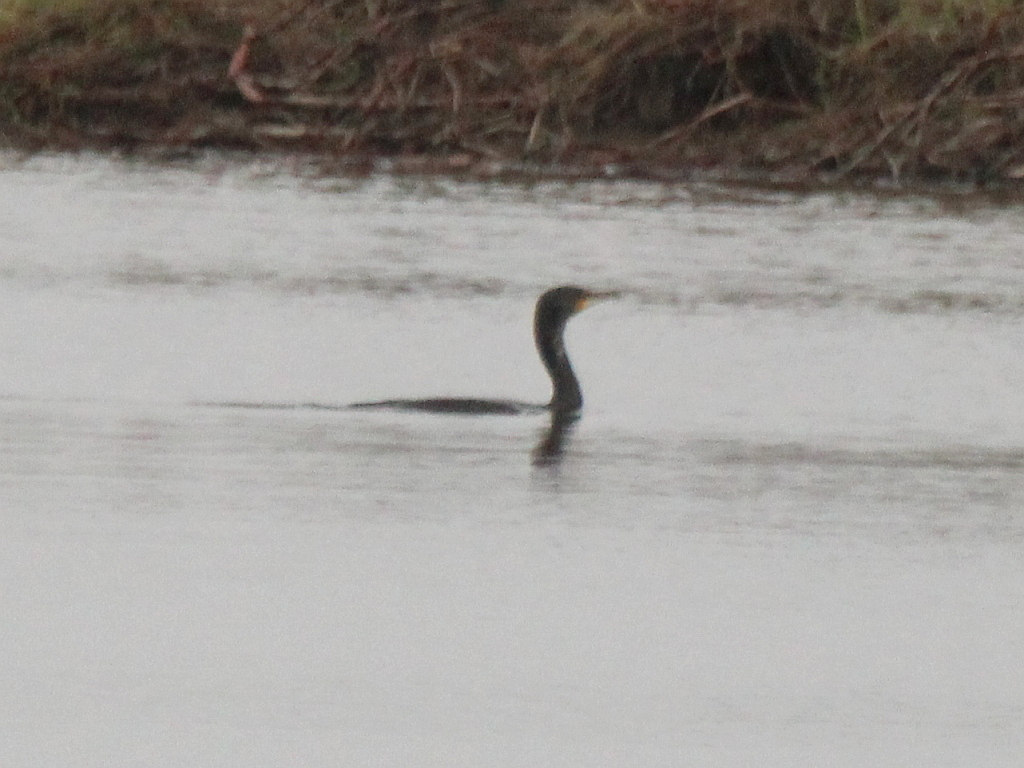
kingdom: Animalia
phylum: Chordata
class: Aves
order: Suliformes
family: Phalacrocoracidae
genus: Phalacrocorax
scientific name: Phalacrocorax carbo
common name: Great cormorant
